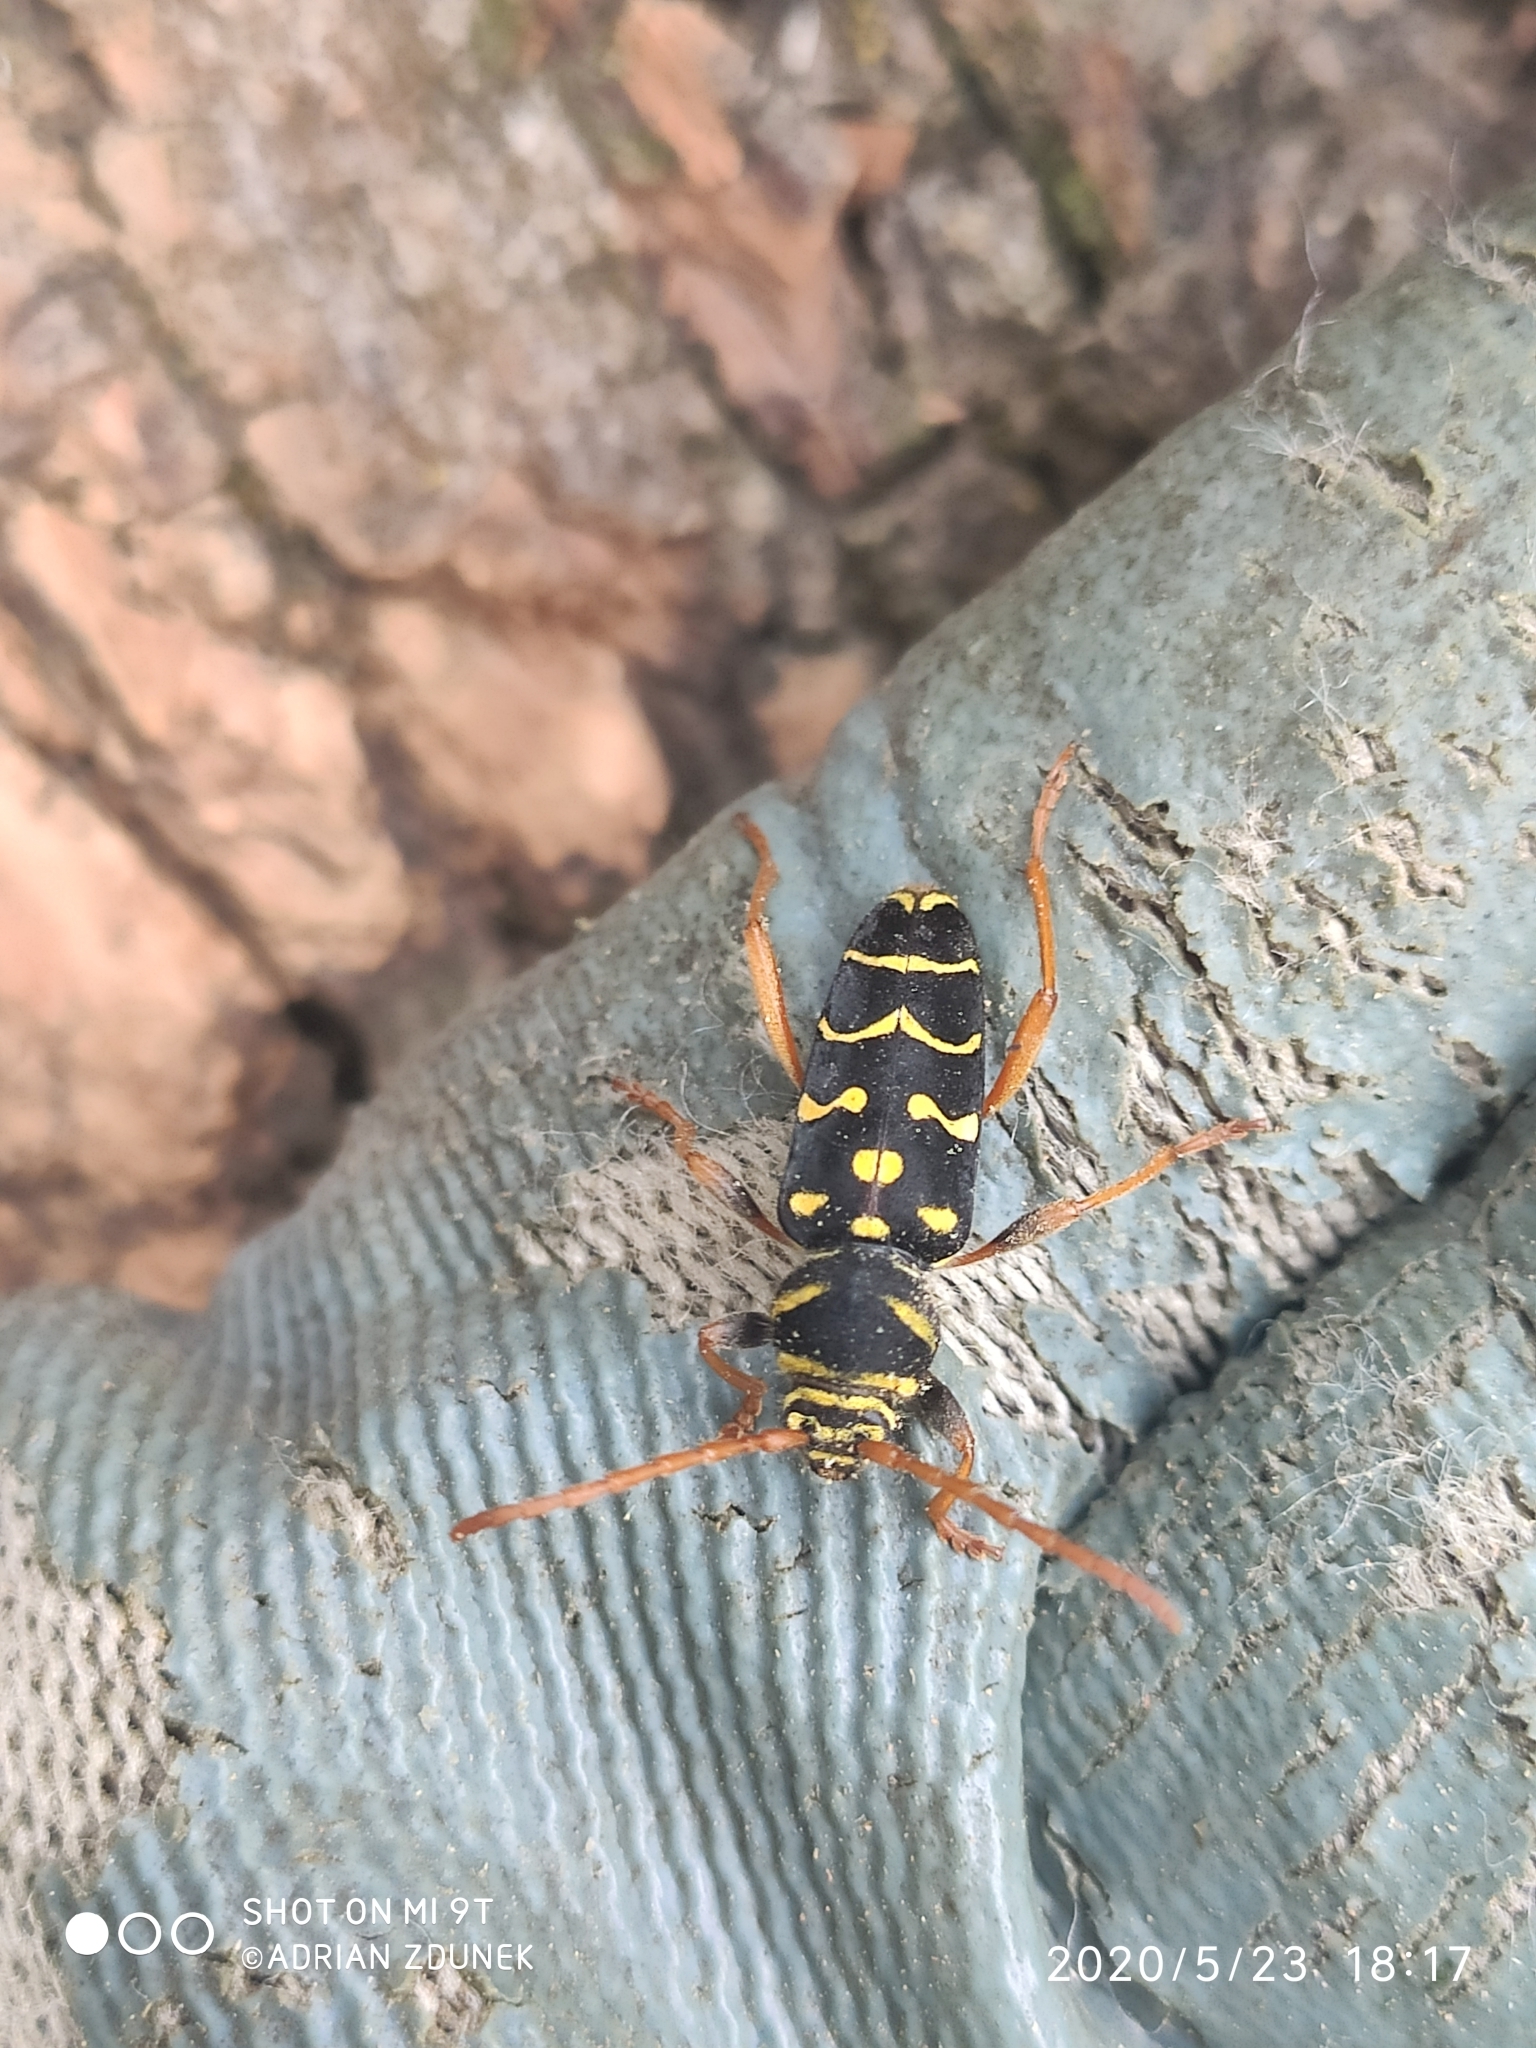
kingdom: Animalia
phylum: Arthropoda
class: Insecta
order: Coleoptera
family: Cerambycidae
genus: Plagionotus
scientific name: Plagionotus arcuatus
